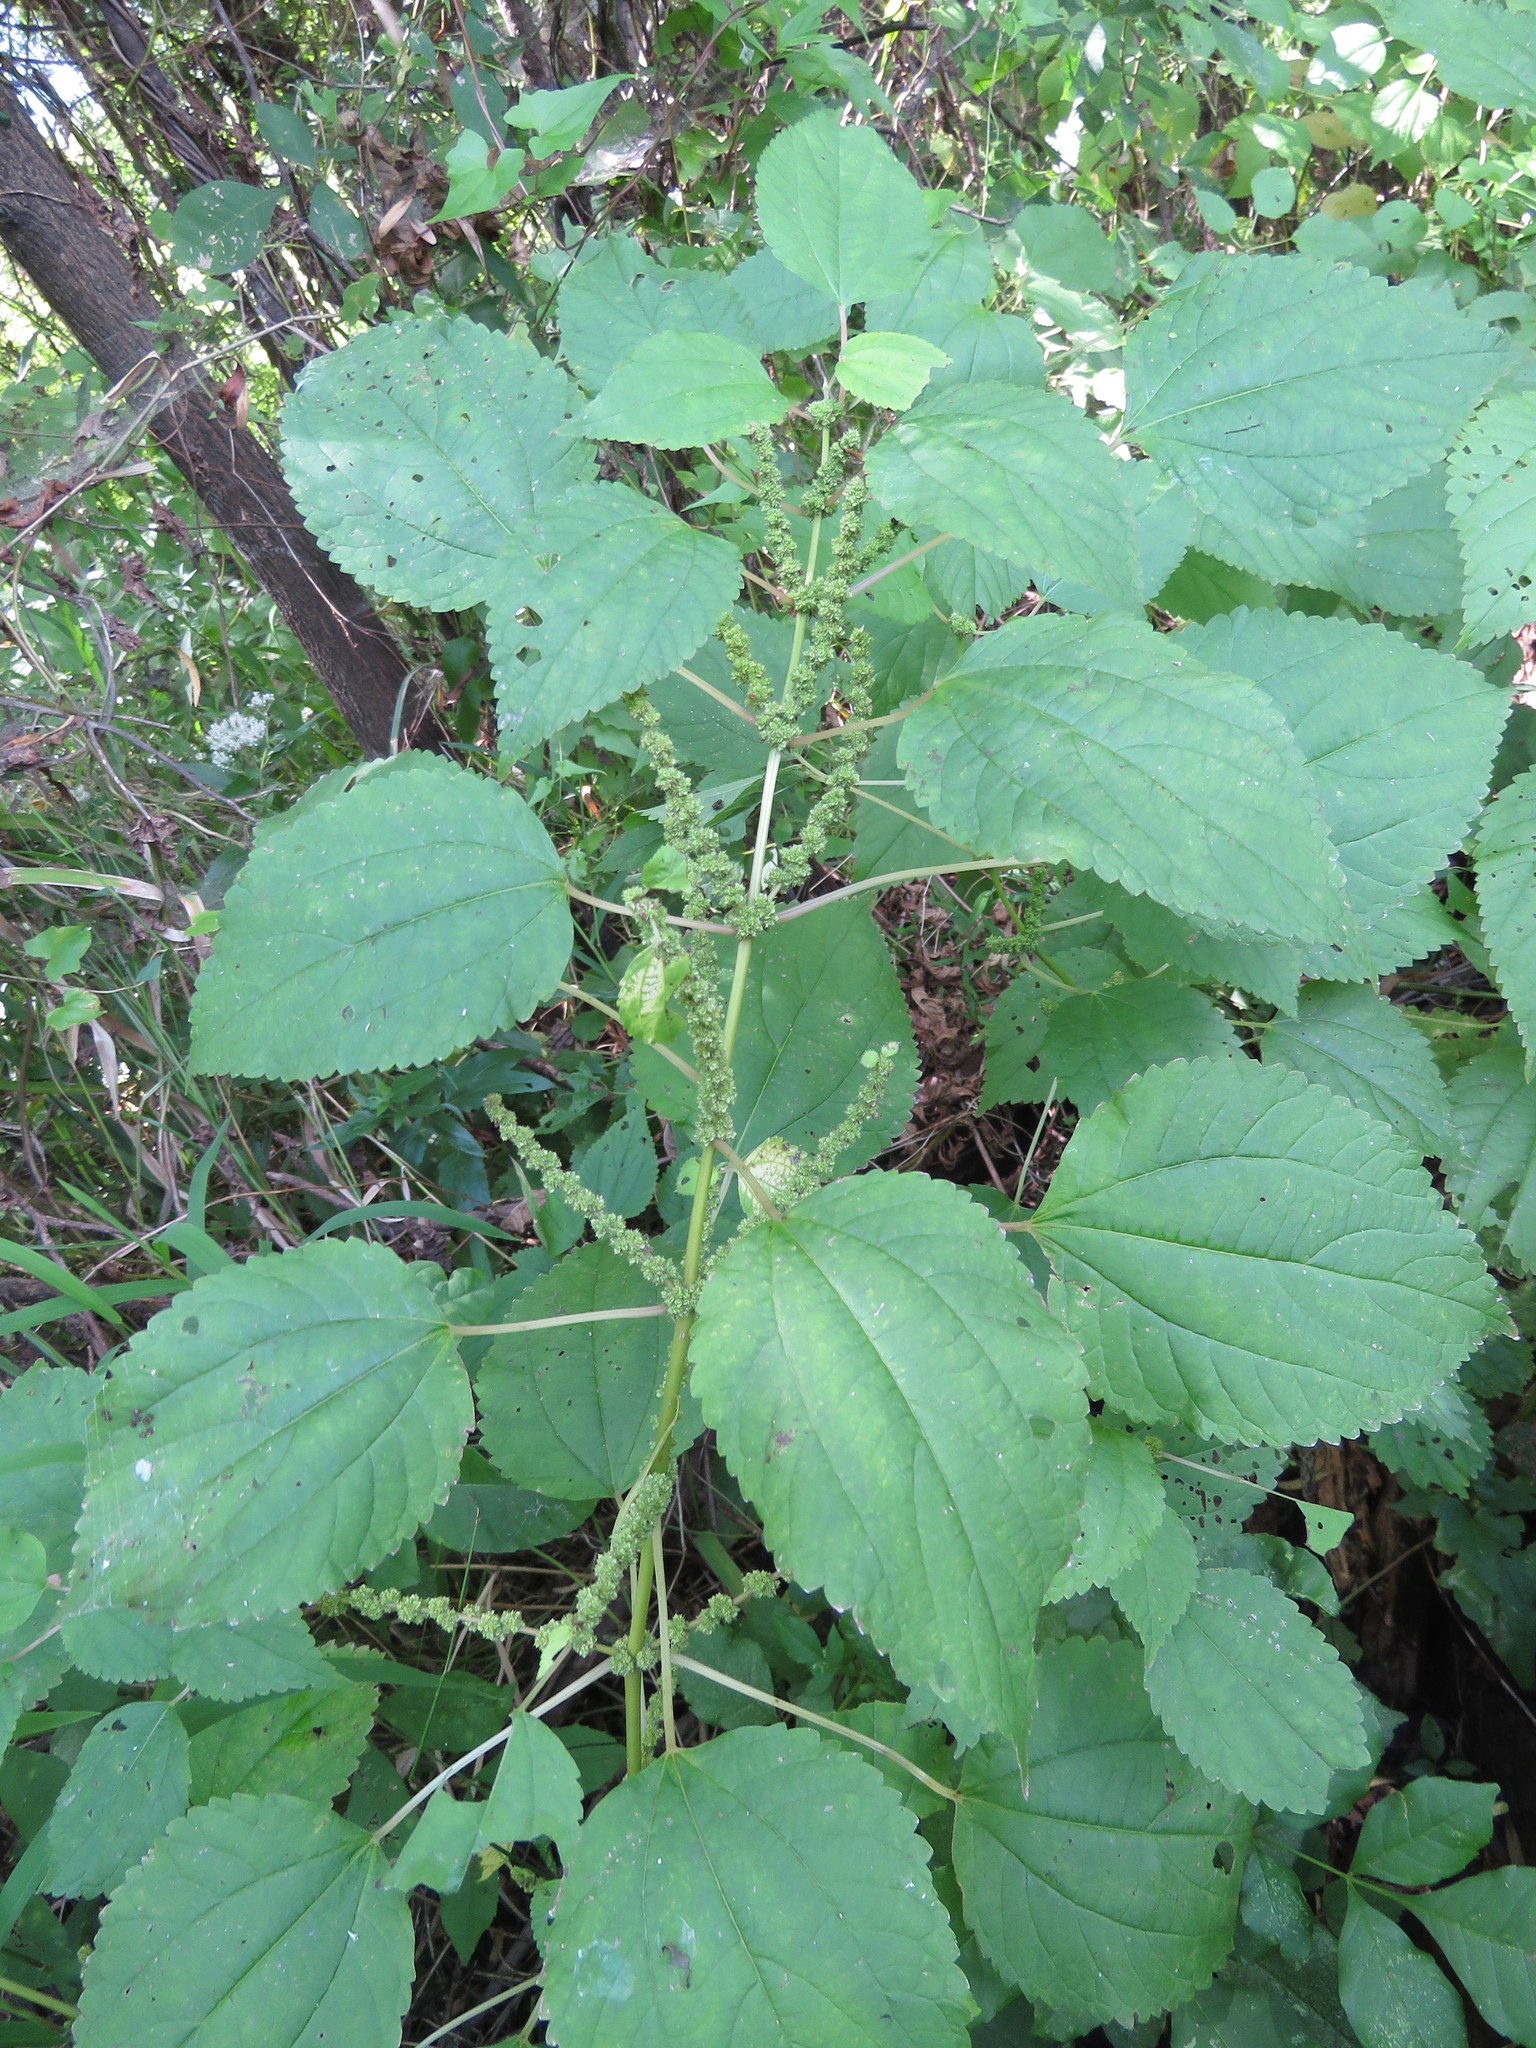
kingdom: Plantae
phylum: Tracheophyta
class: Magnoliopsida
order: Rosales
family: Urticaceae
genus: Boehmeria
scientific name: Boehmeria cylindrica
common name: Bog-hemp
